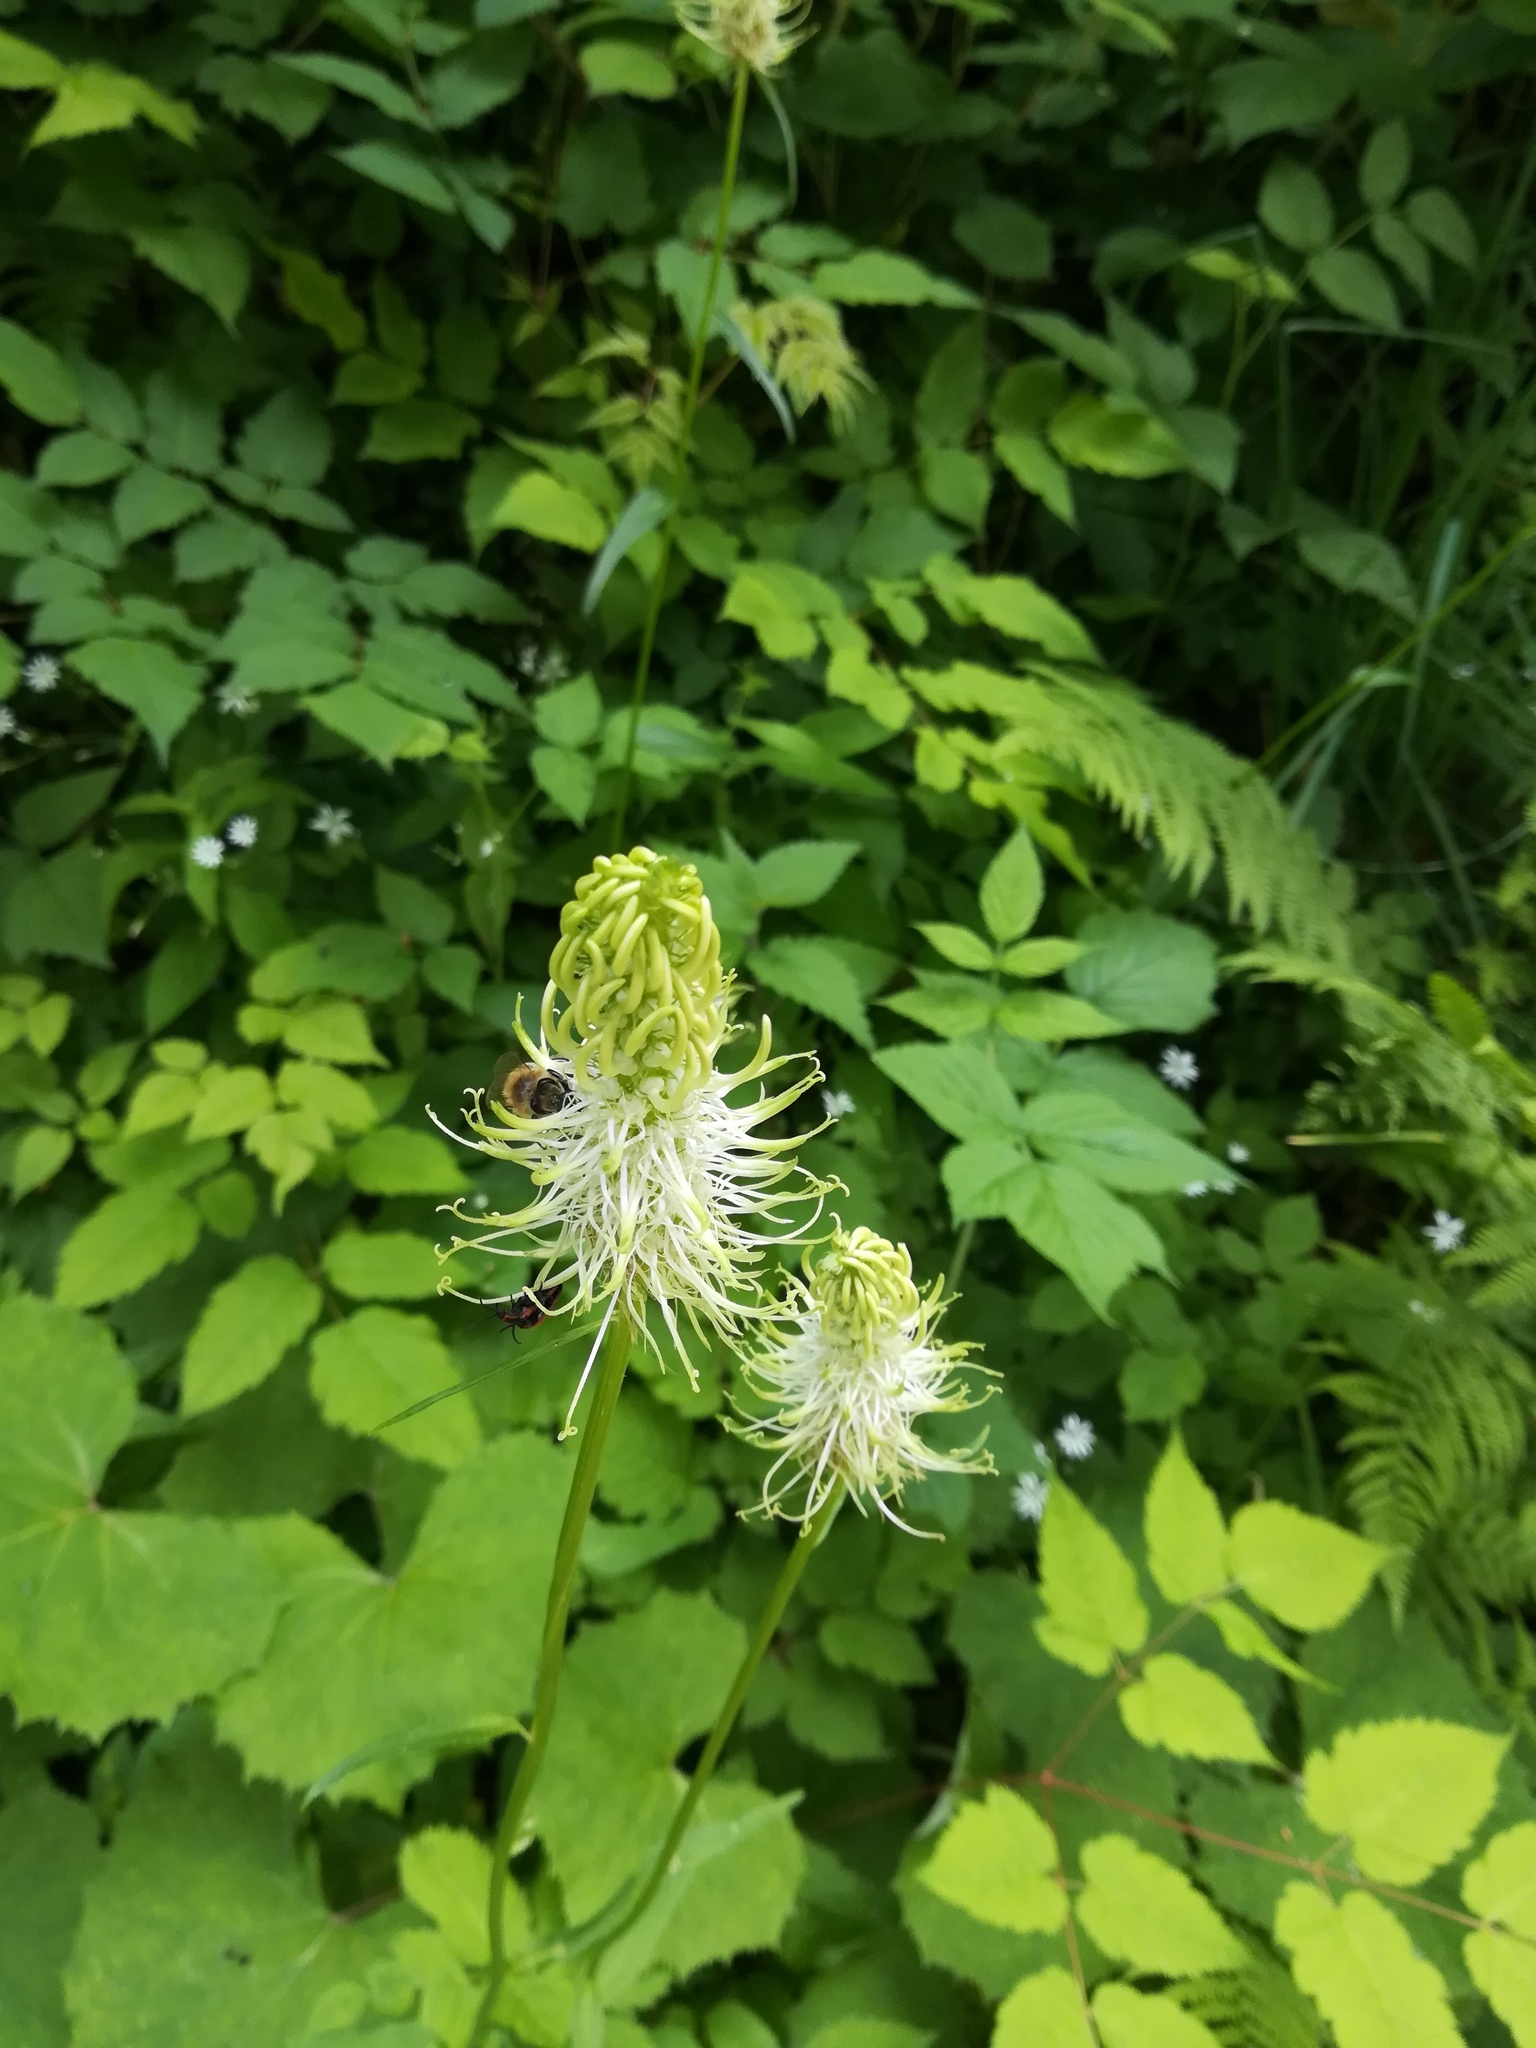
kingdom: Plantae
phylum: Tracheophyta
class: Magnoliopsida
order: Asterales
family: Campanulaceae
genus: Phyteuma
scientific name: Phyteuma spicatum
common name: Spiked rampion
